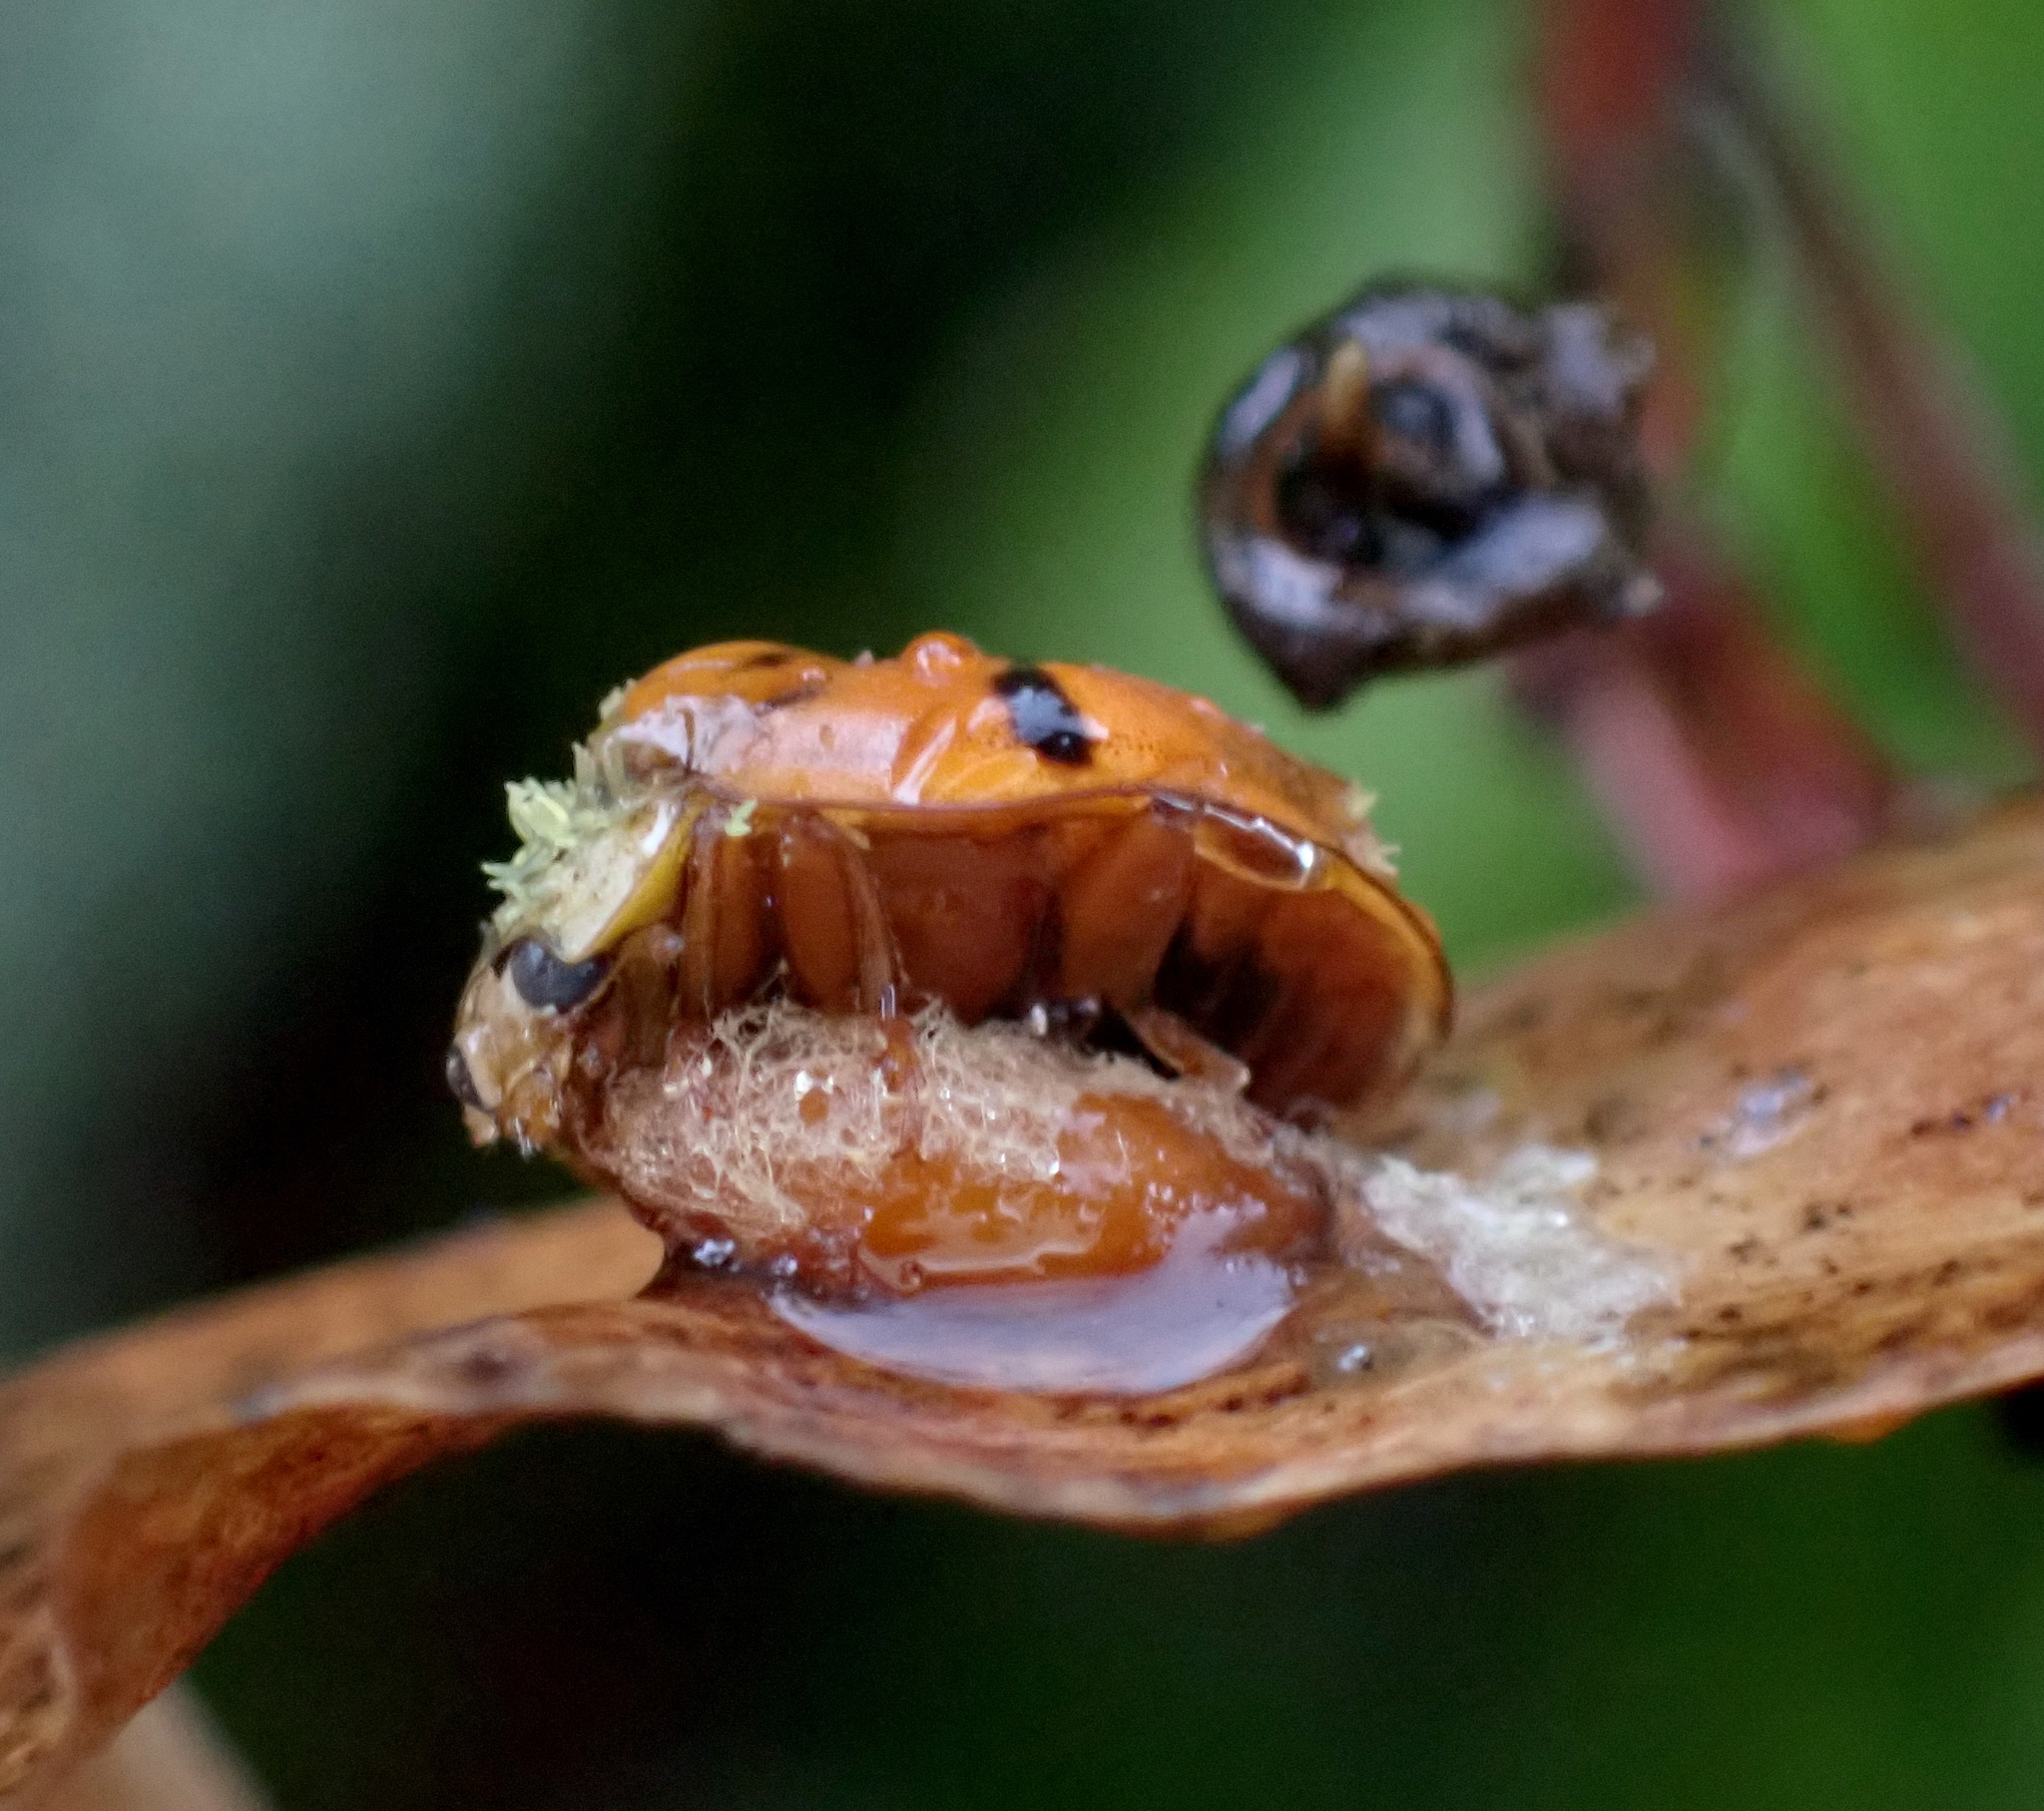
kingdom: Animalia
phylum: Arthropoda
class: Insecta
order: Coleoptera
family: Coccinellidae
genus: Harmonia
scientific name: Harmonia axyridis
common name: Harlequin ladybird
